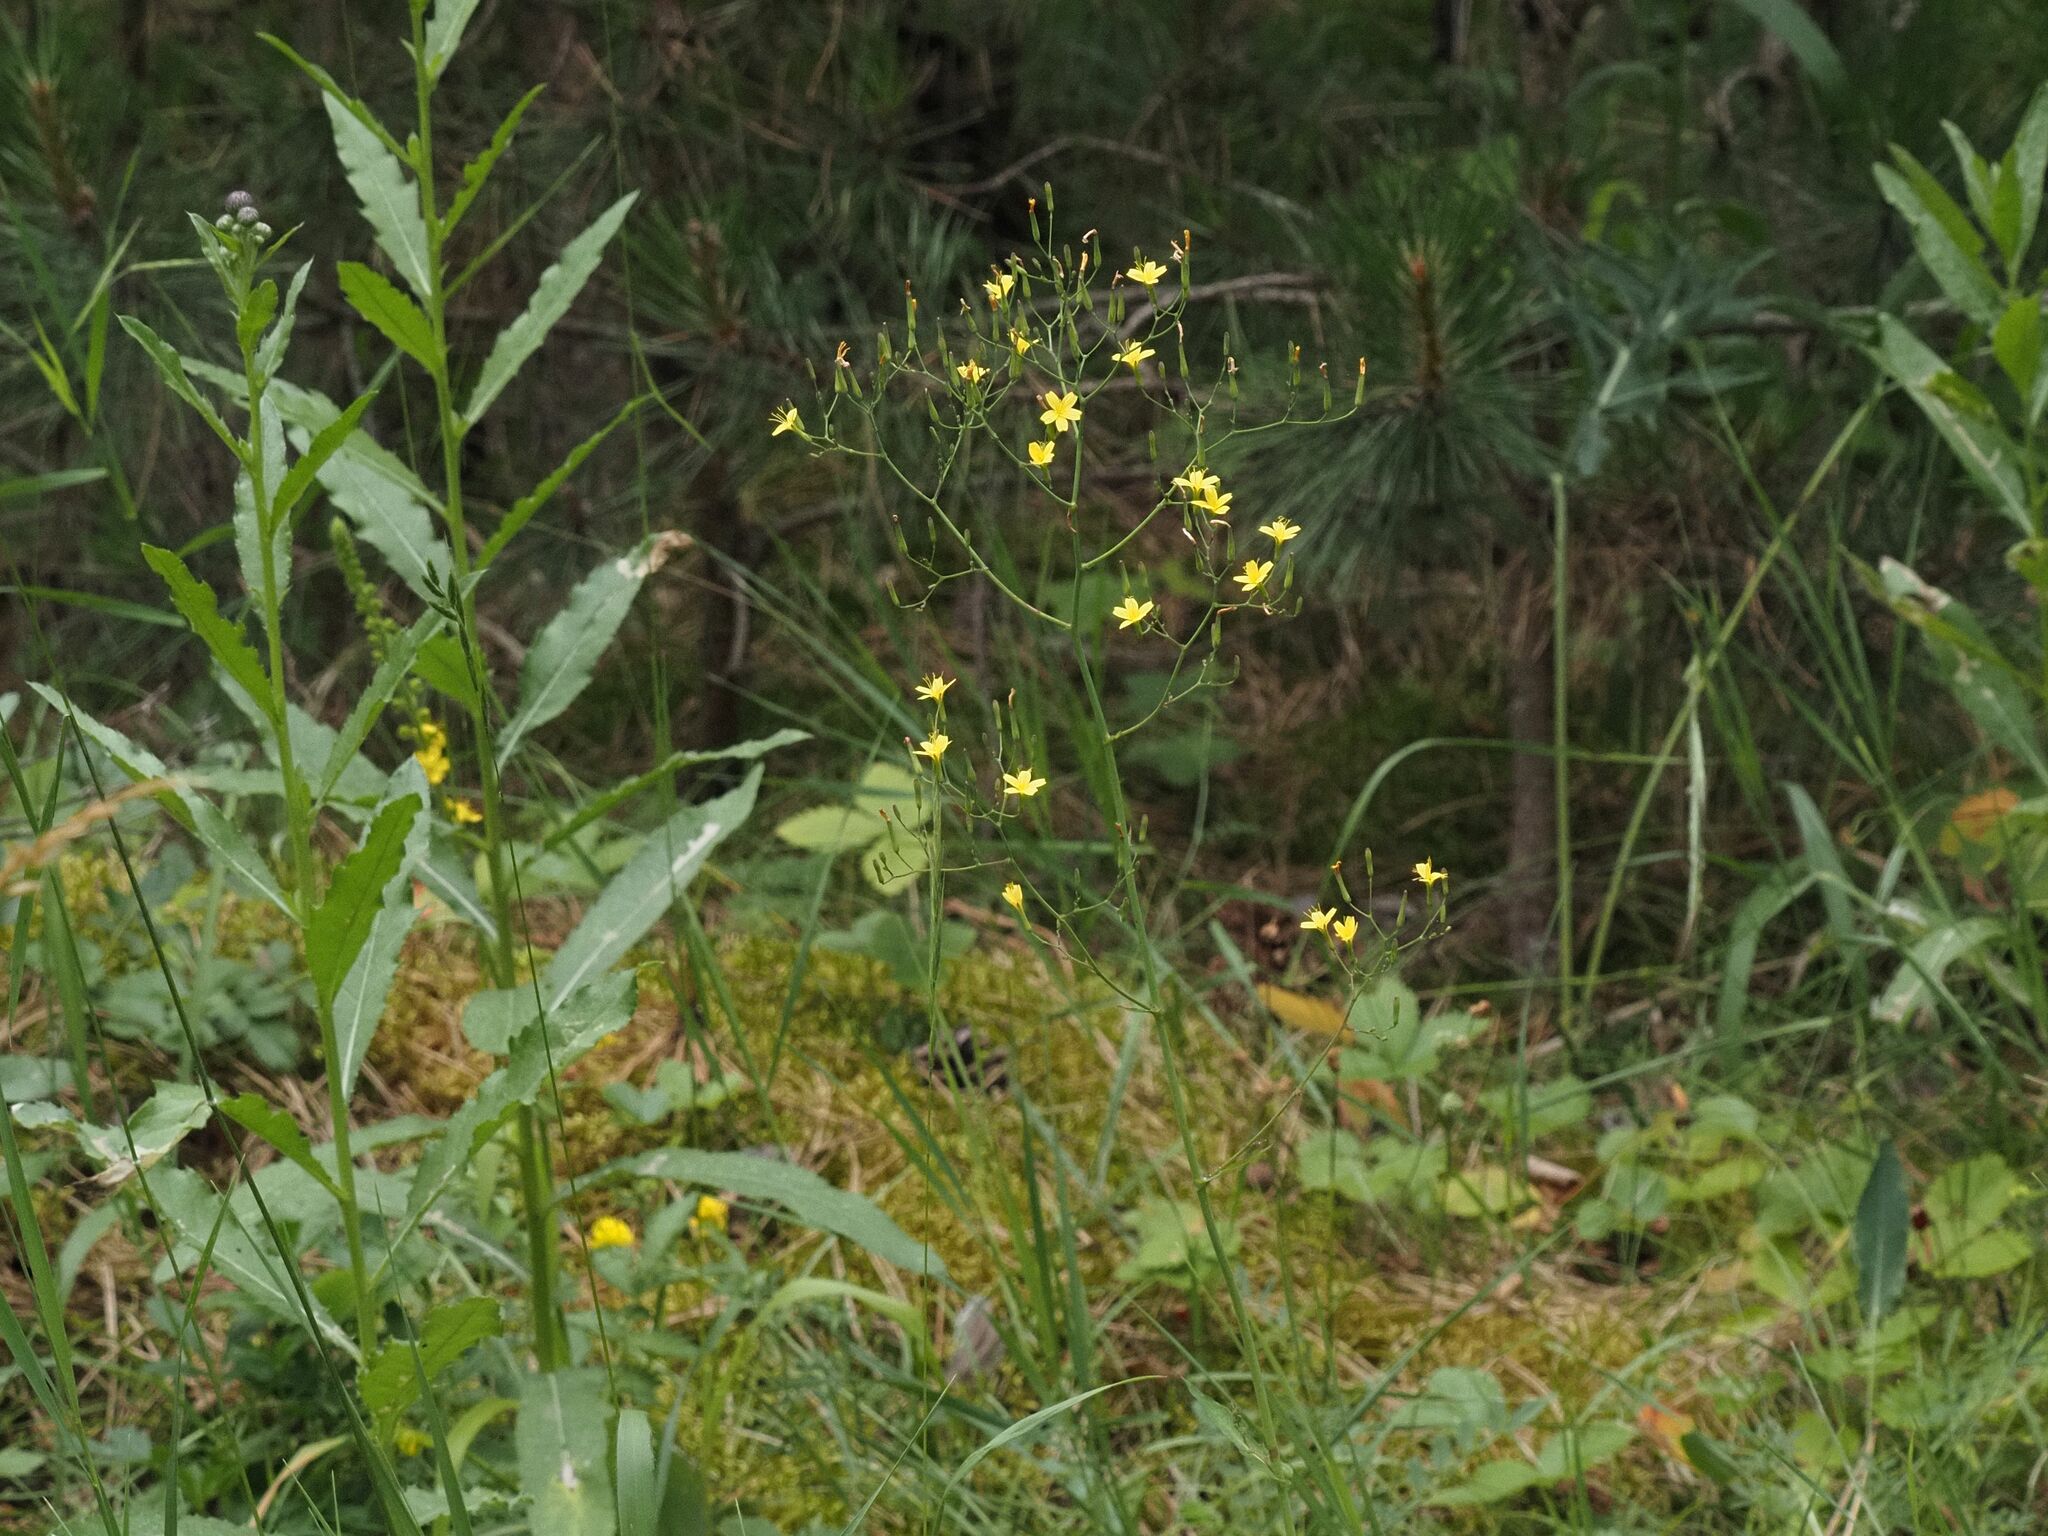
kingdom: Plantae
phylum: Tracheophyta
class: Magnoliopsida
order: Asterales
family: Asteraceae
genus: Mycelis
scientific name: Mycelis muralis
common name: Wall lettuce
